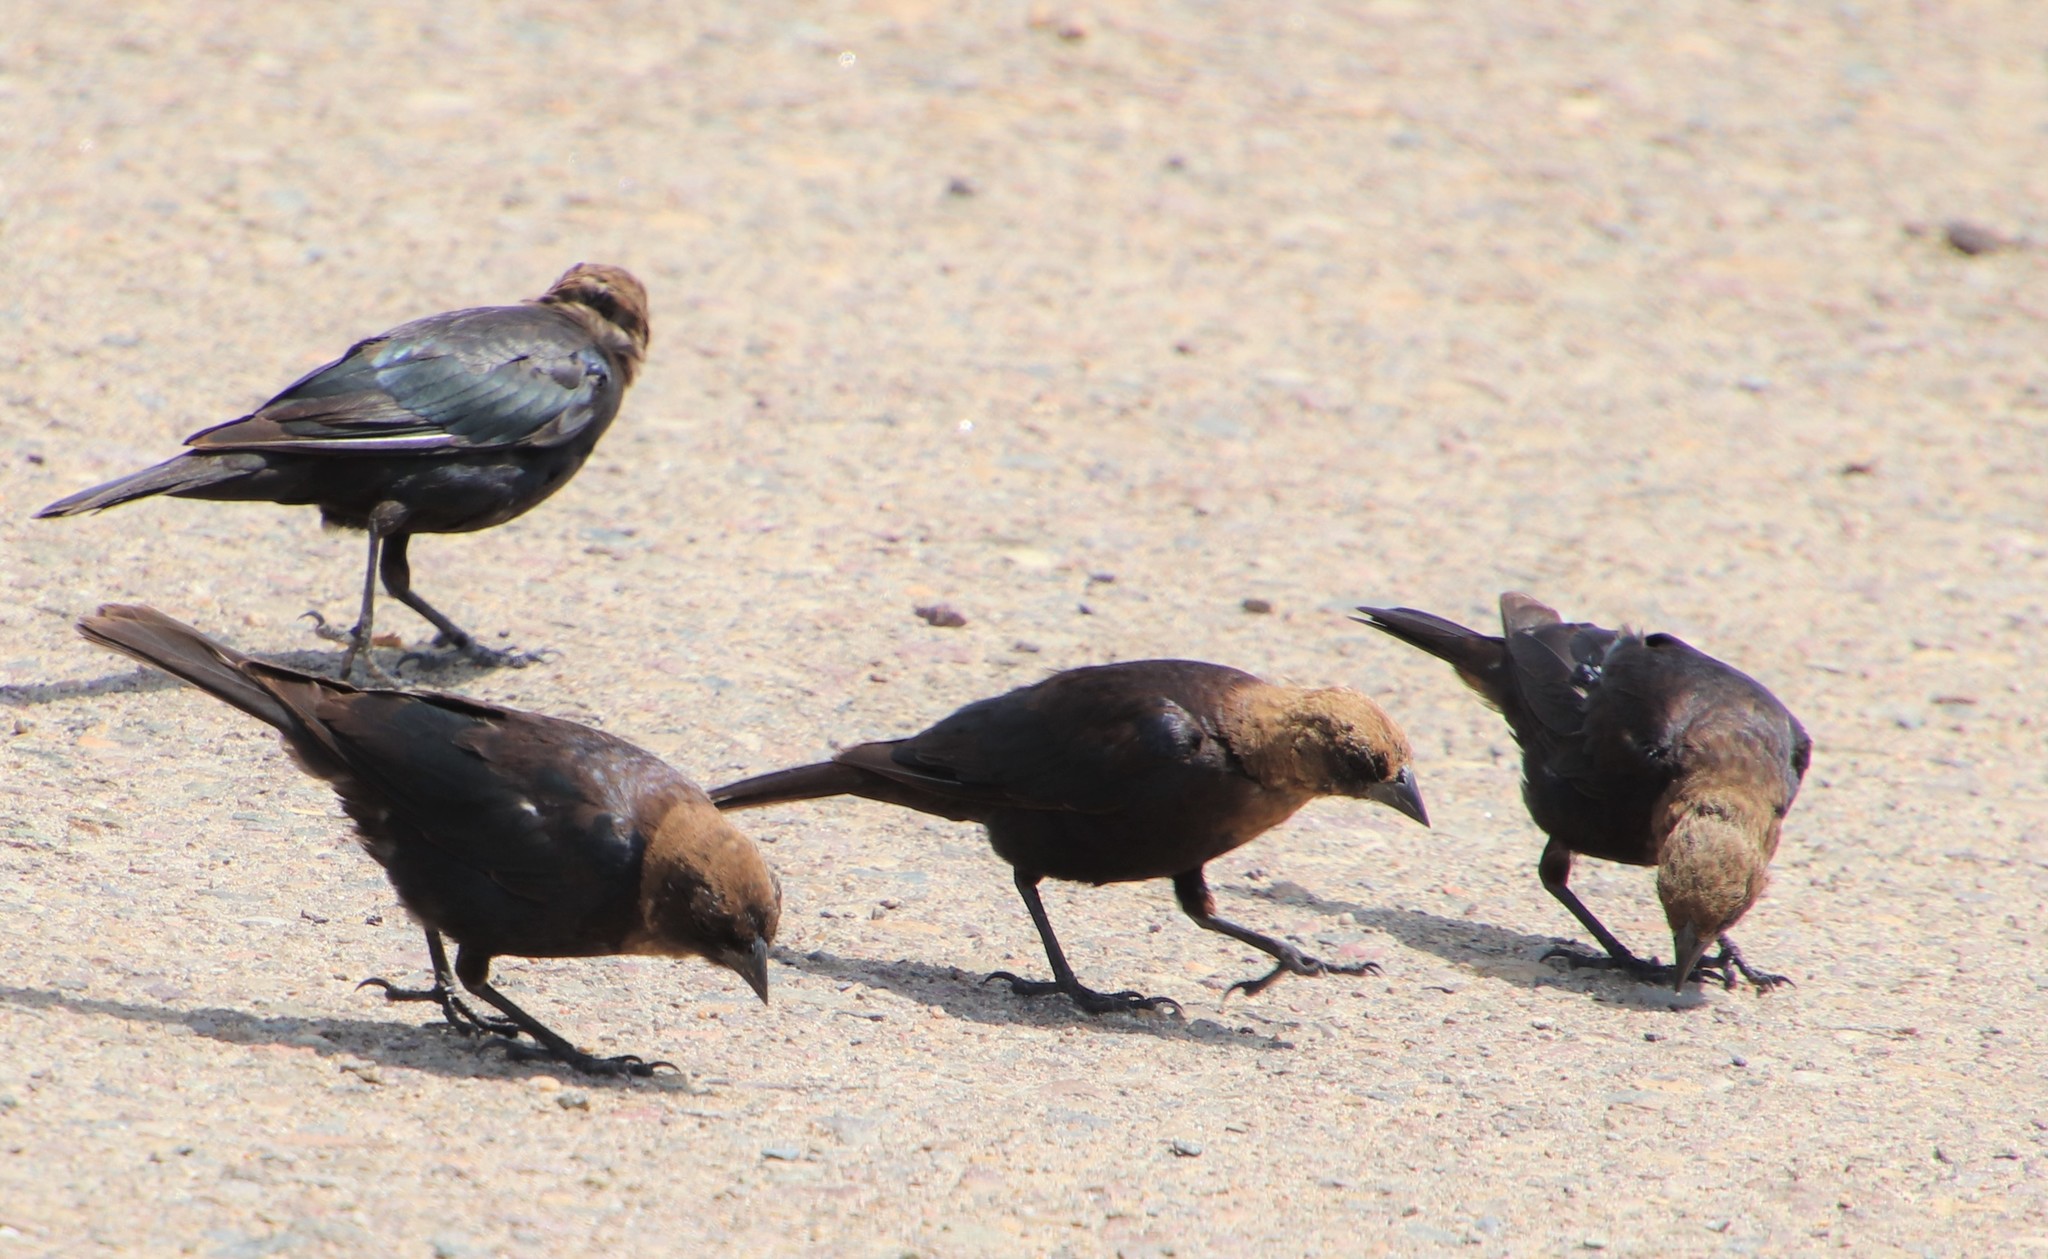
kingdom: Animalia
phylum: Chordata
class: Aves
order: Passeriformes
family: Icteridae
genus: Molothrus
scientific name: Molothrus ater
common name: Brown-headed cowbird
